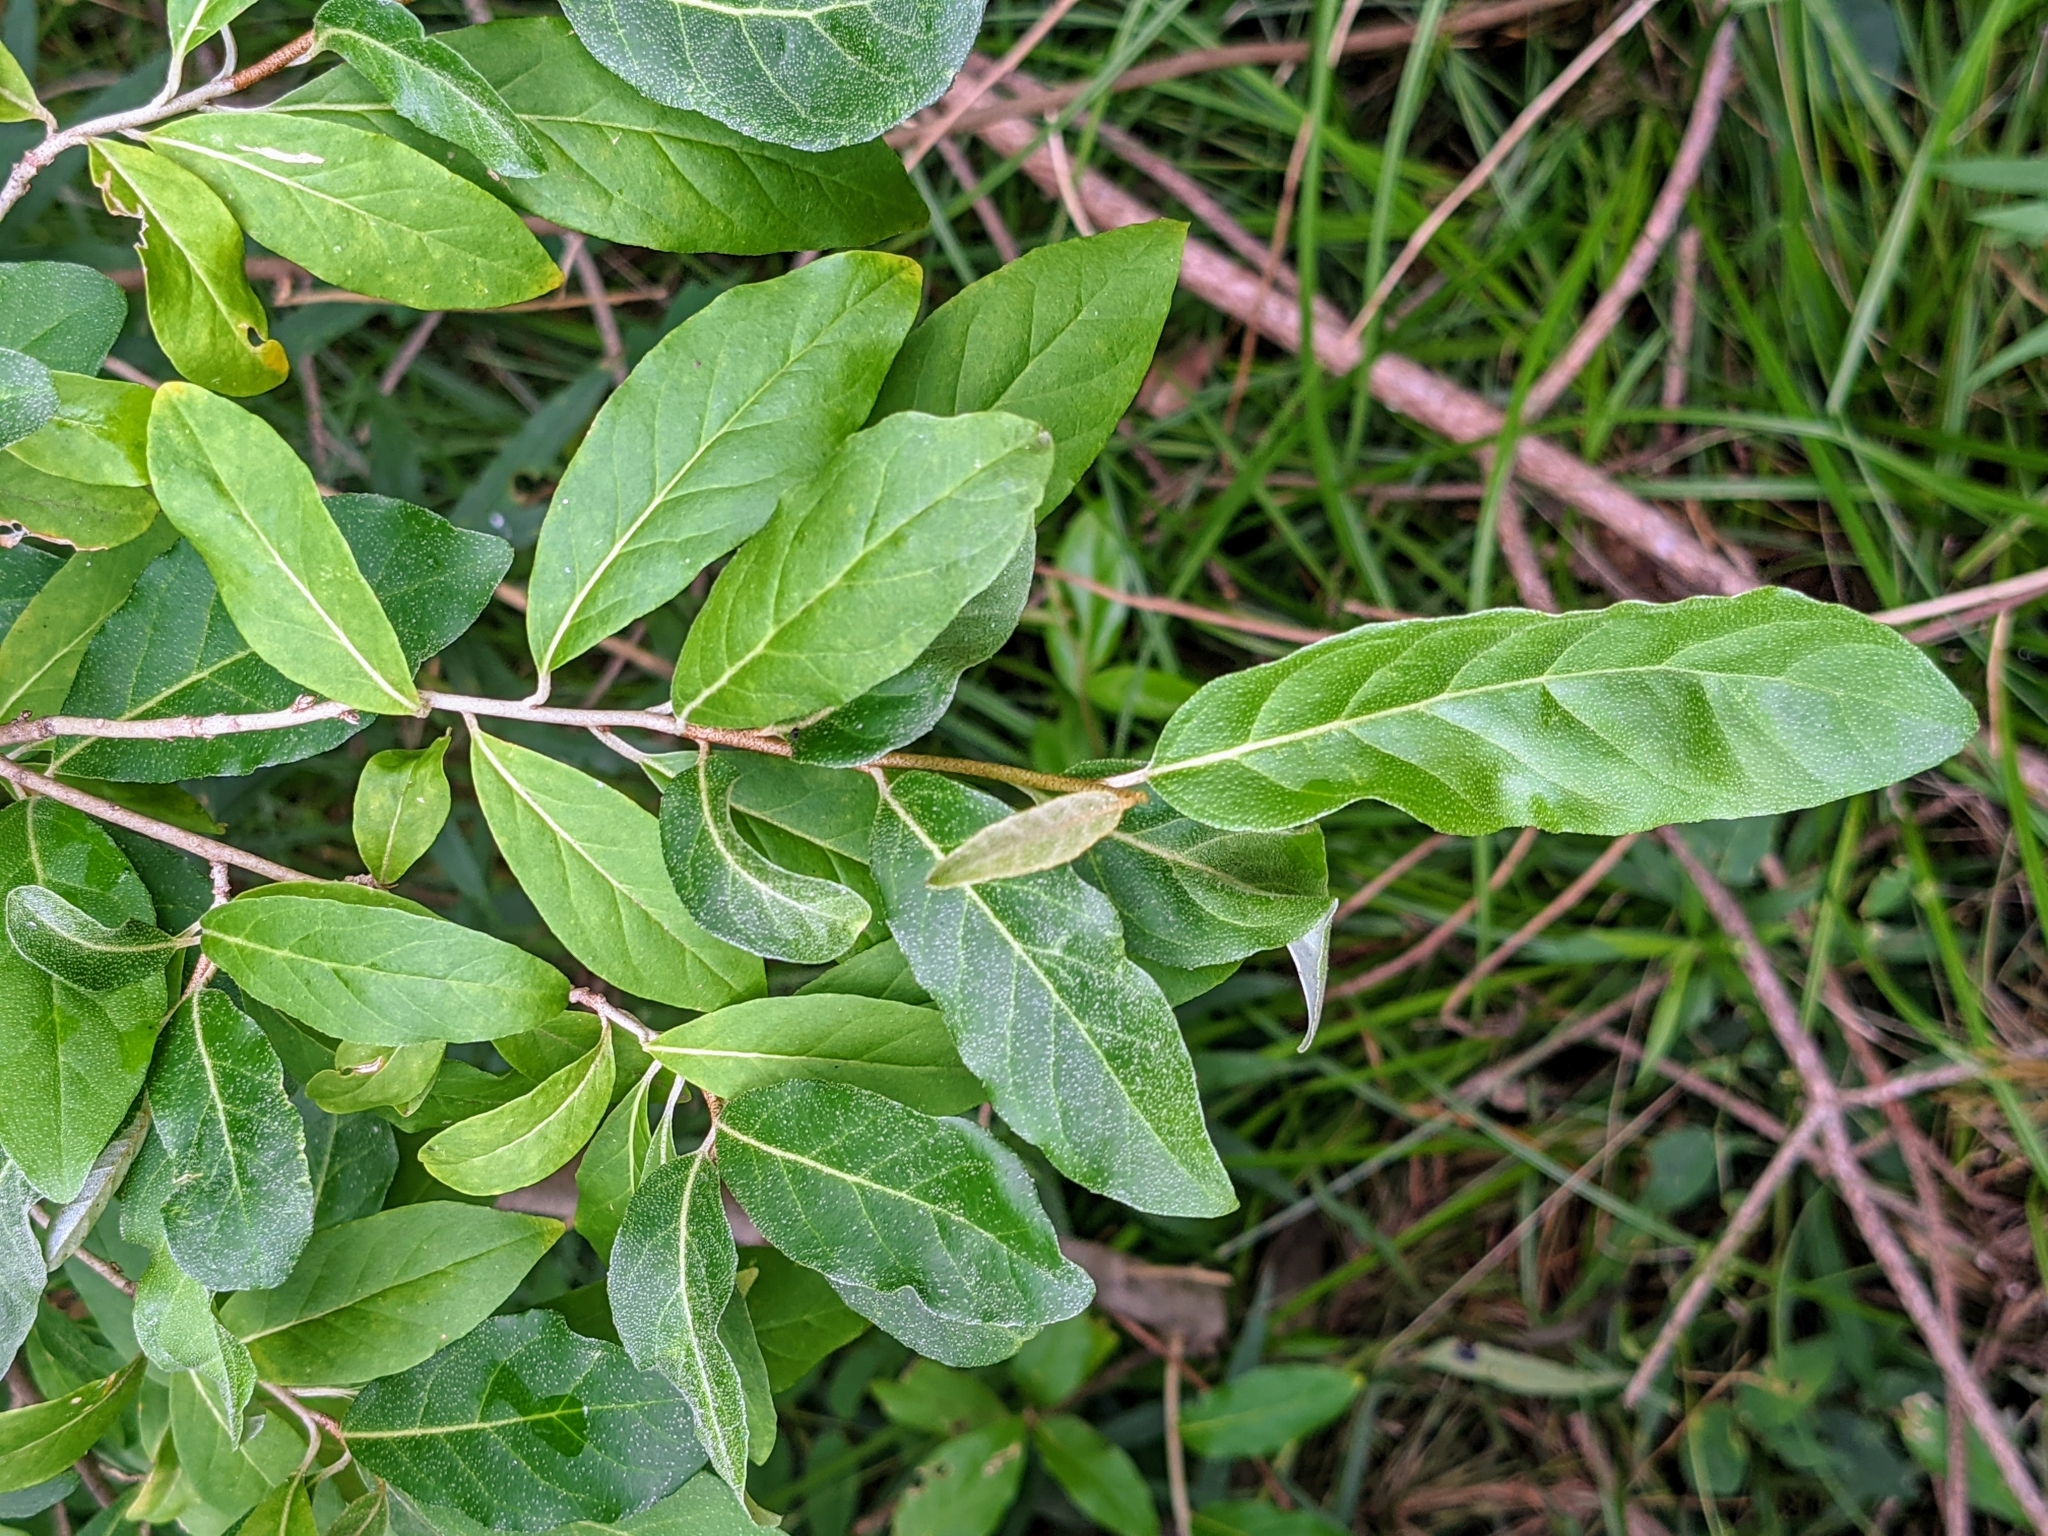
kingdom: Plantae
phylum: Tracheophyta
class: Magnoliopsida
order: Rosales
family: Elaeagnaceae
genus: Elaeagnus
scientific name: Elaeagnus umbellata
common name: Autumn olive
